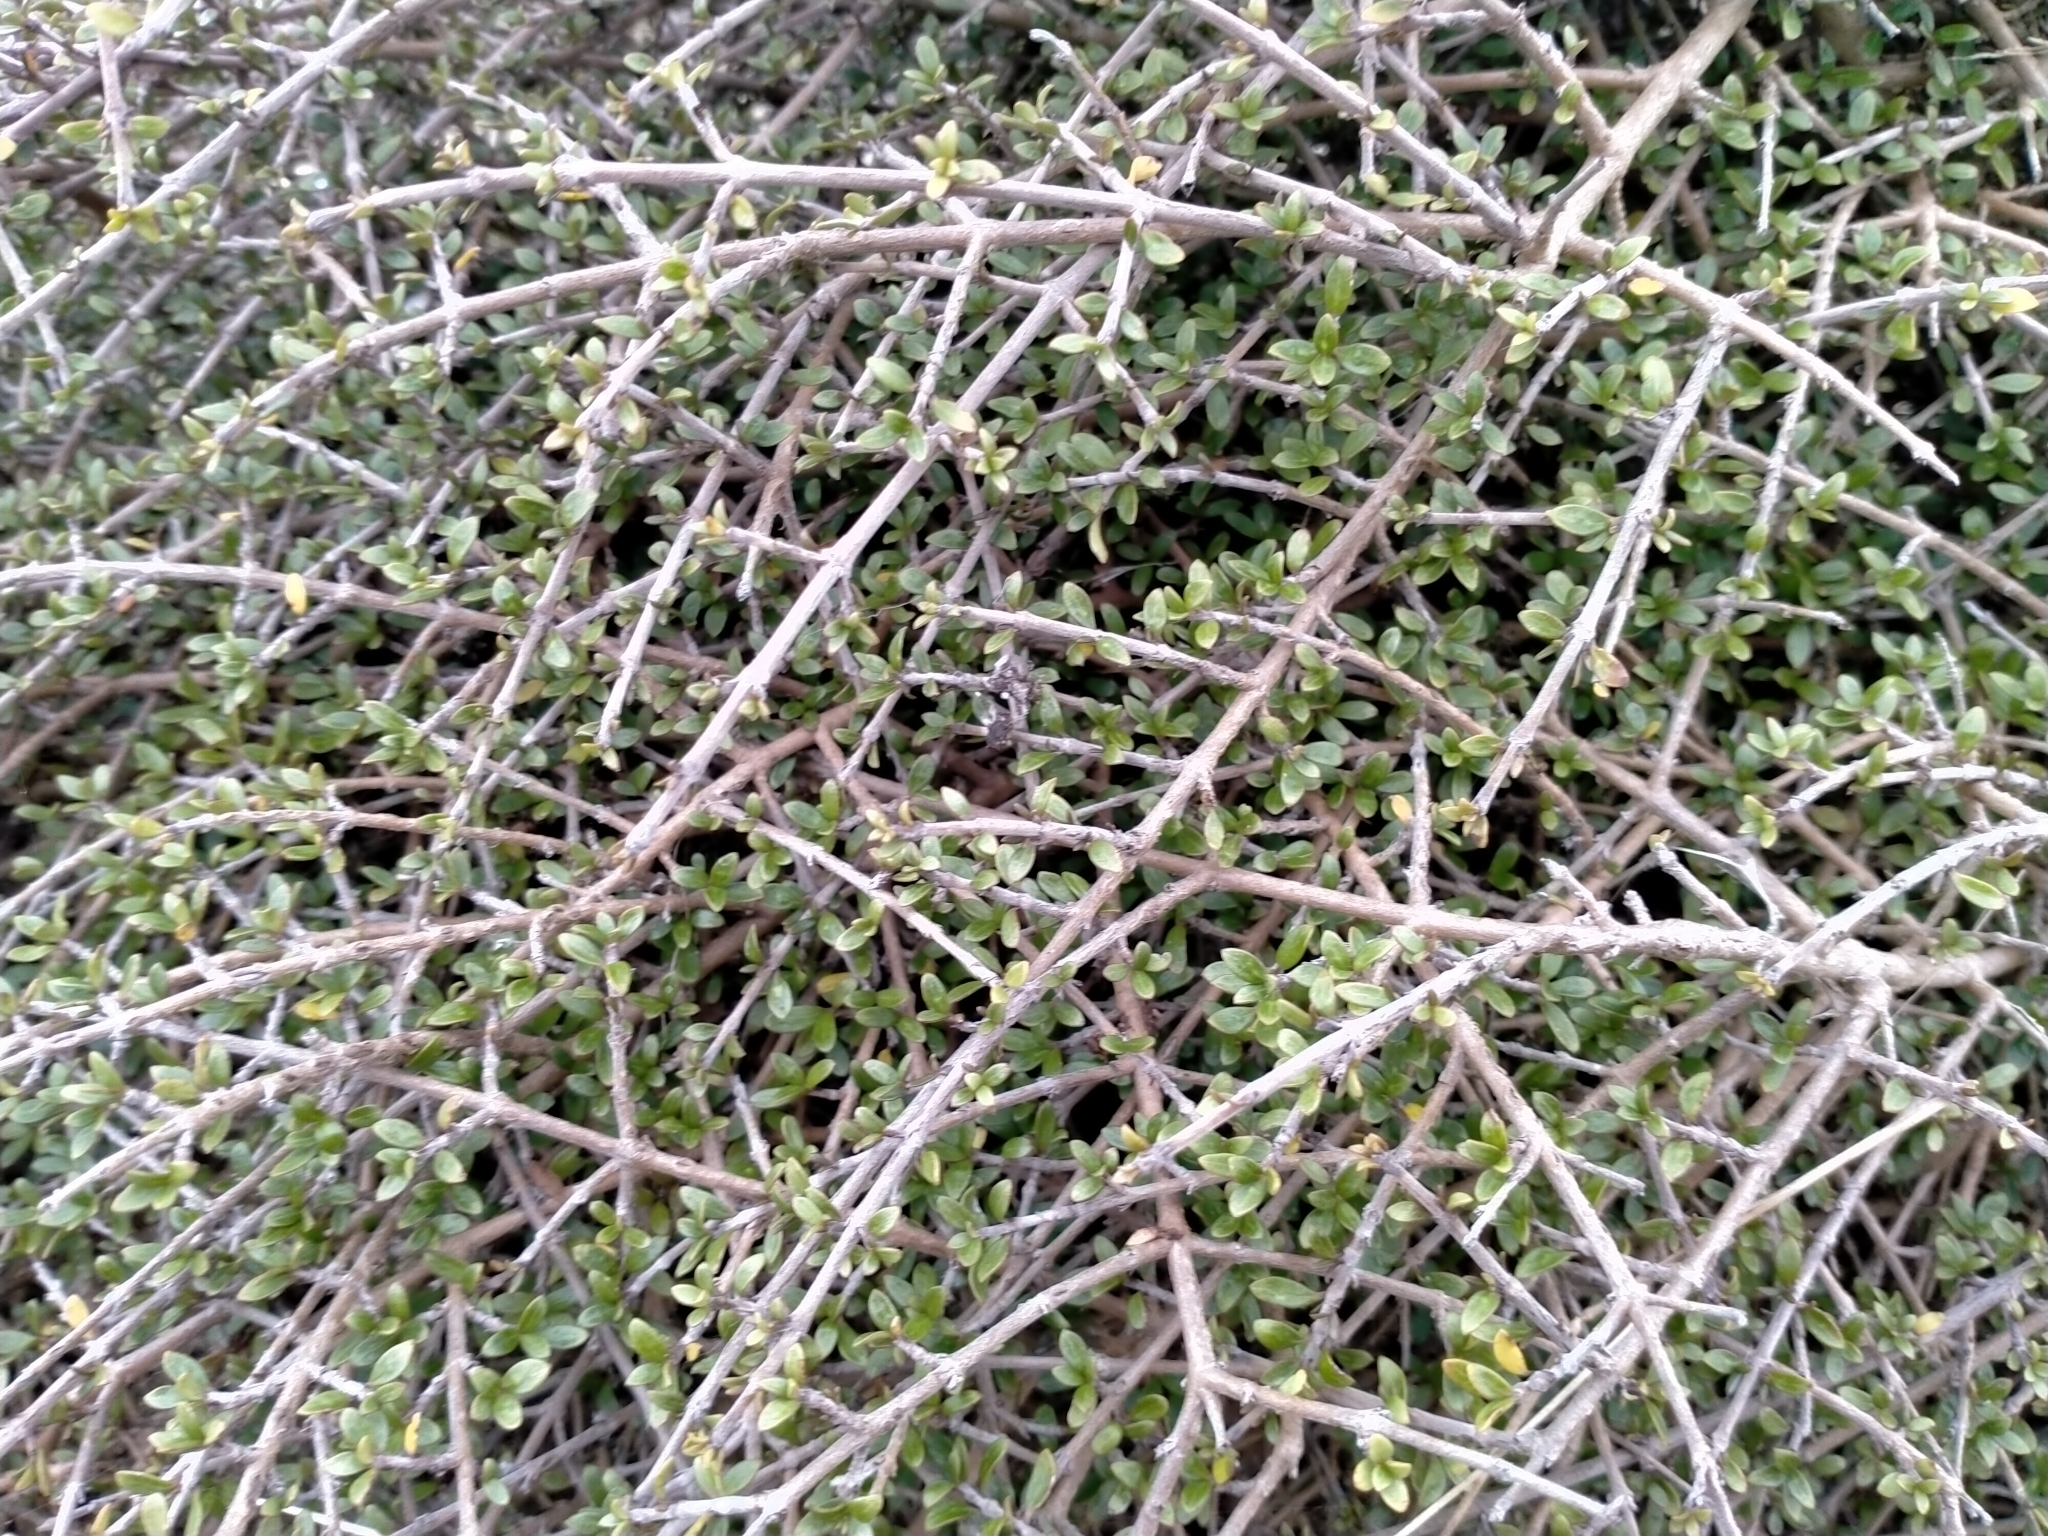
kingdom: Plantae
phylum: Tracheophyta
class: Magnoliopsida
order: Gentianales
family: Rubiaceae
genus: Coprosma
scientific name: Coprosma dumosa
